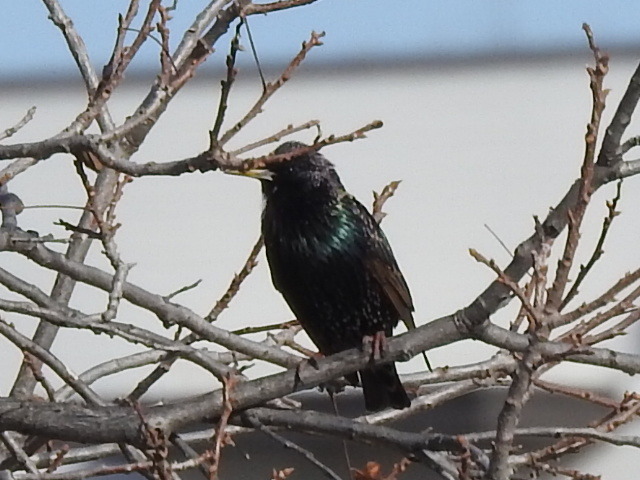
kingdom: Animalia
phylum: Chordata
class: Aves
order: Passeriformes
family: Sturnidae
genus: Sturnus
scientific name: Sturnus vulgaris
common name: Common starling
